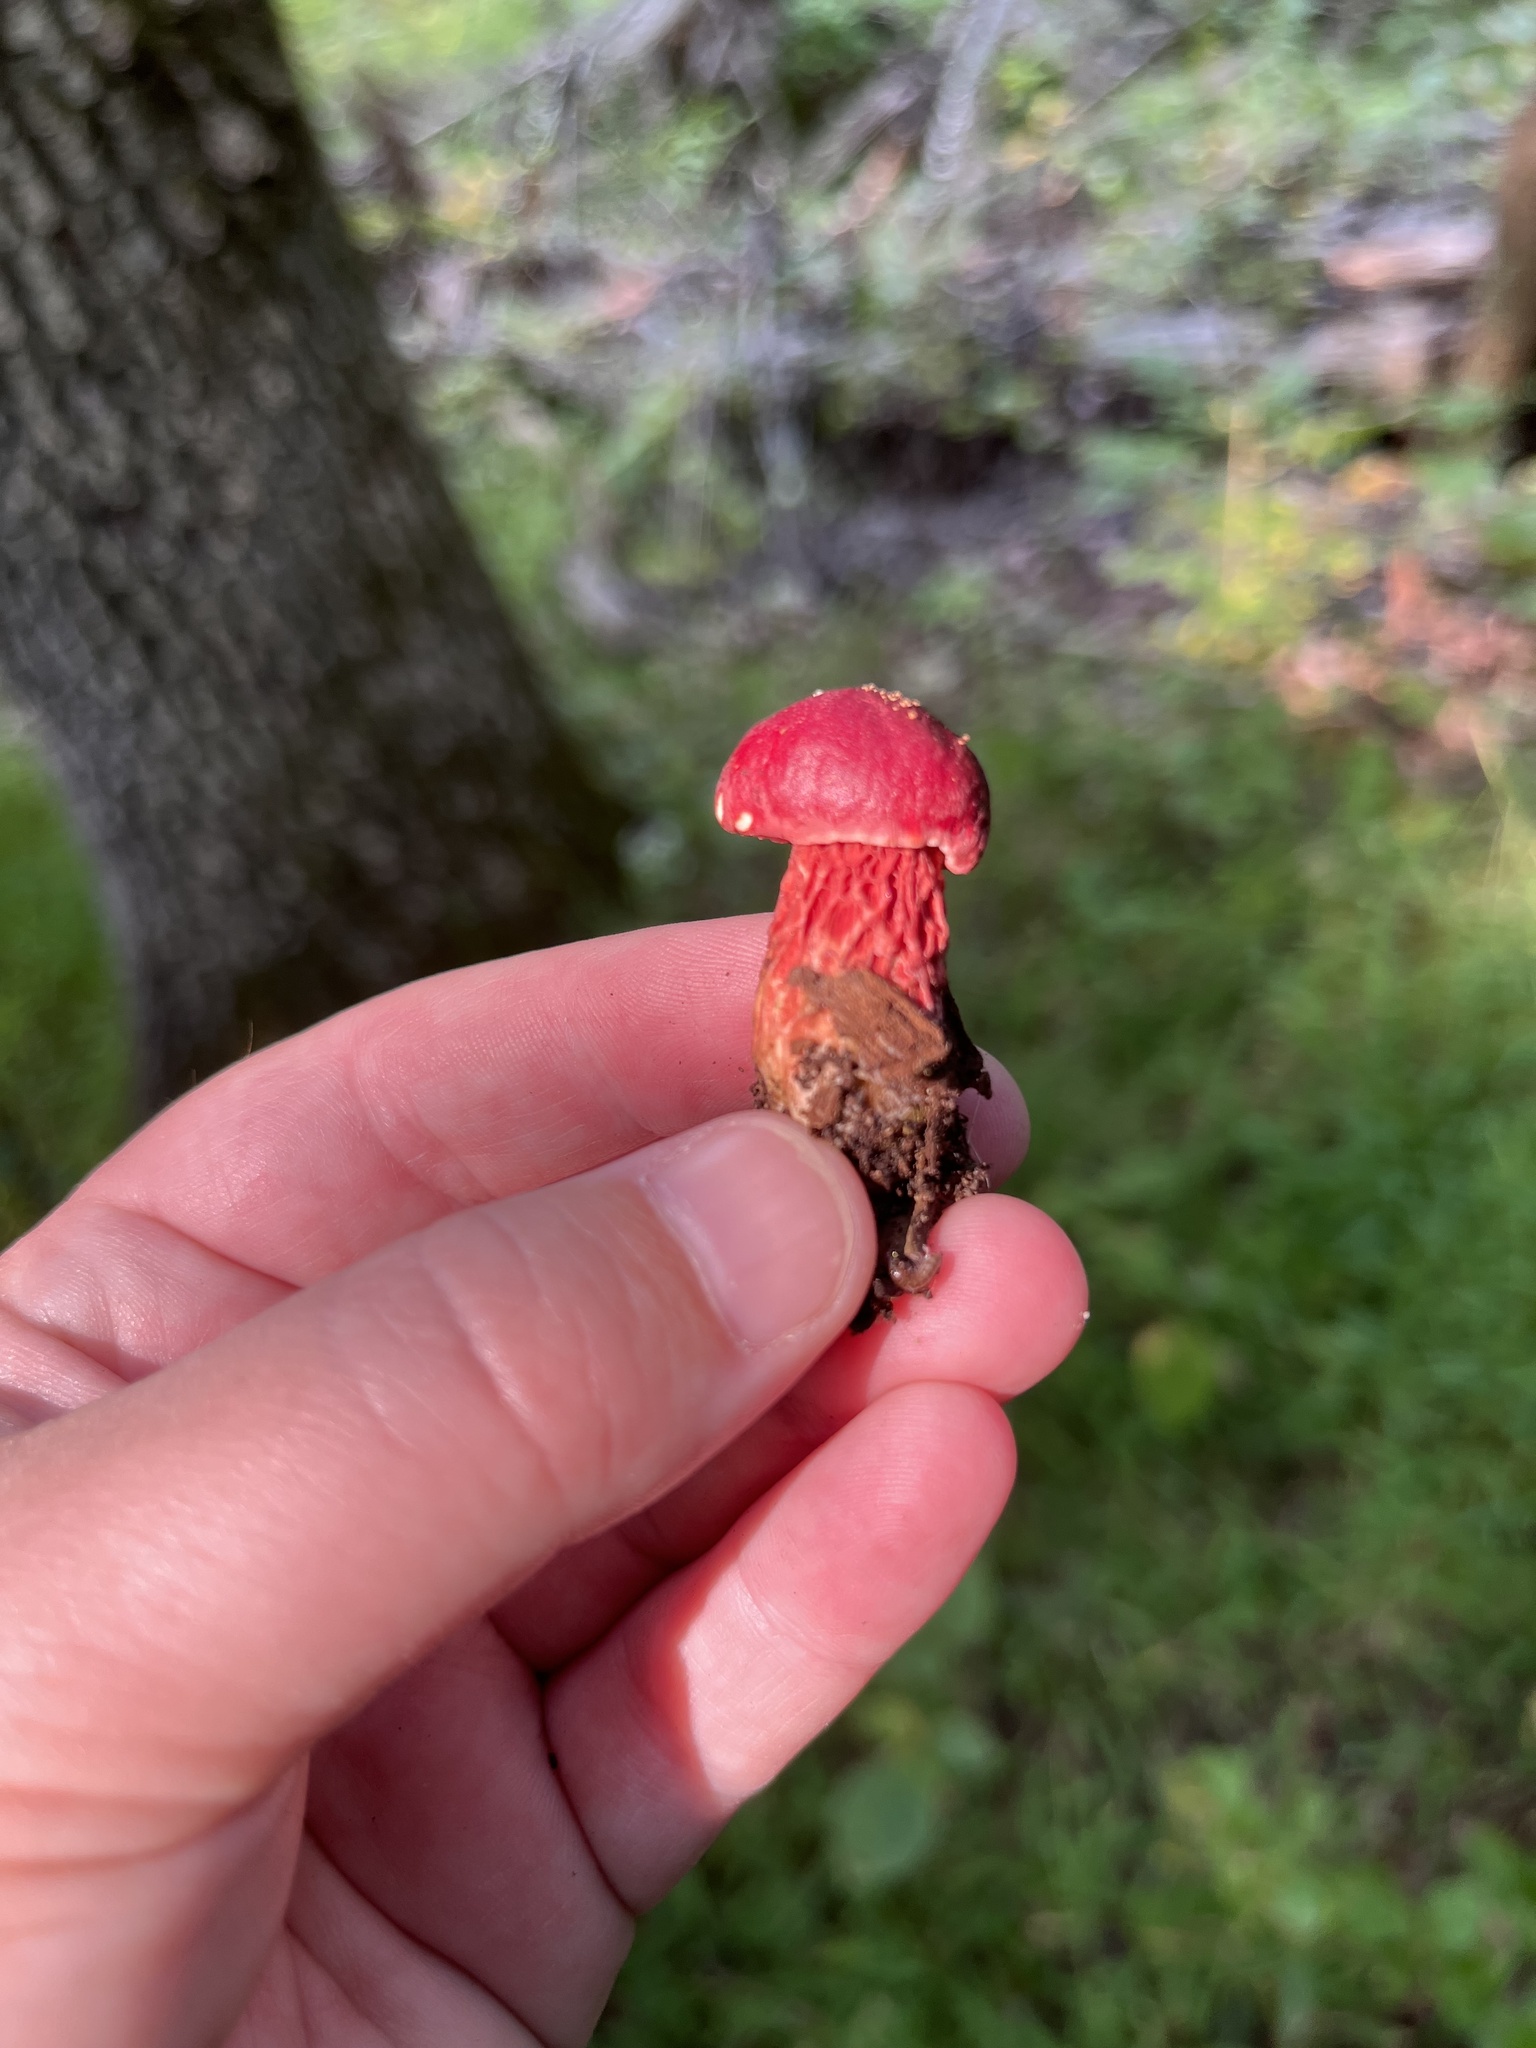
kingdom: Fungi
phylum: Basidiomycota
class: Agaricomycetes
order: Boletales
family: Boletaceae
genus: Butyriboletus
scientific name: Butyriboletus frostii
